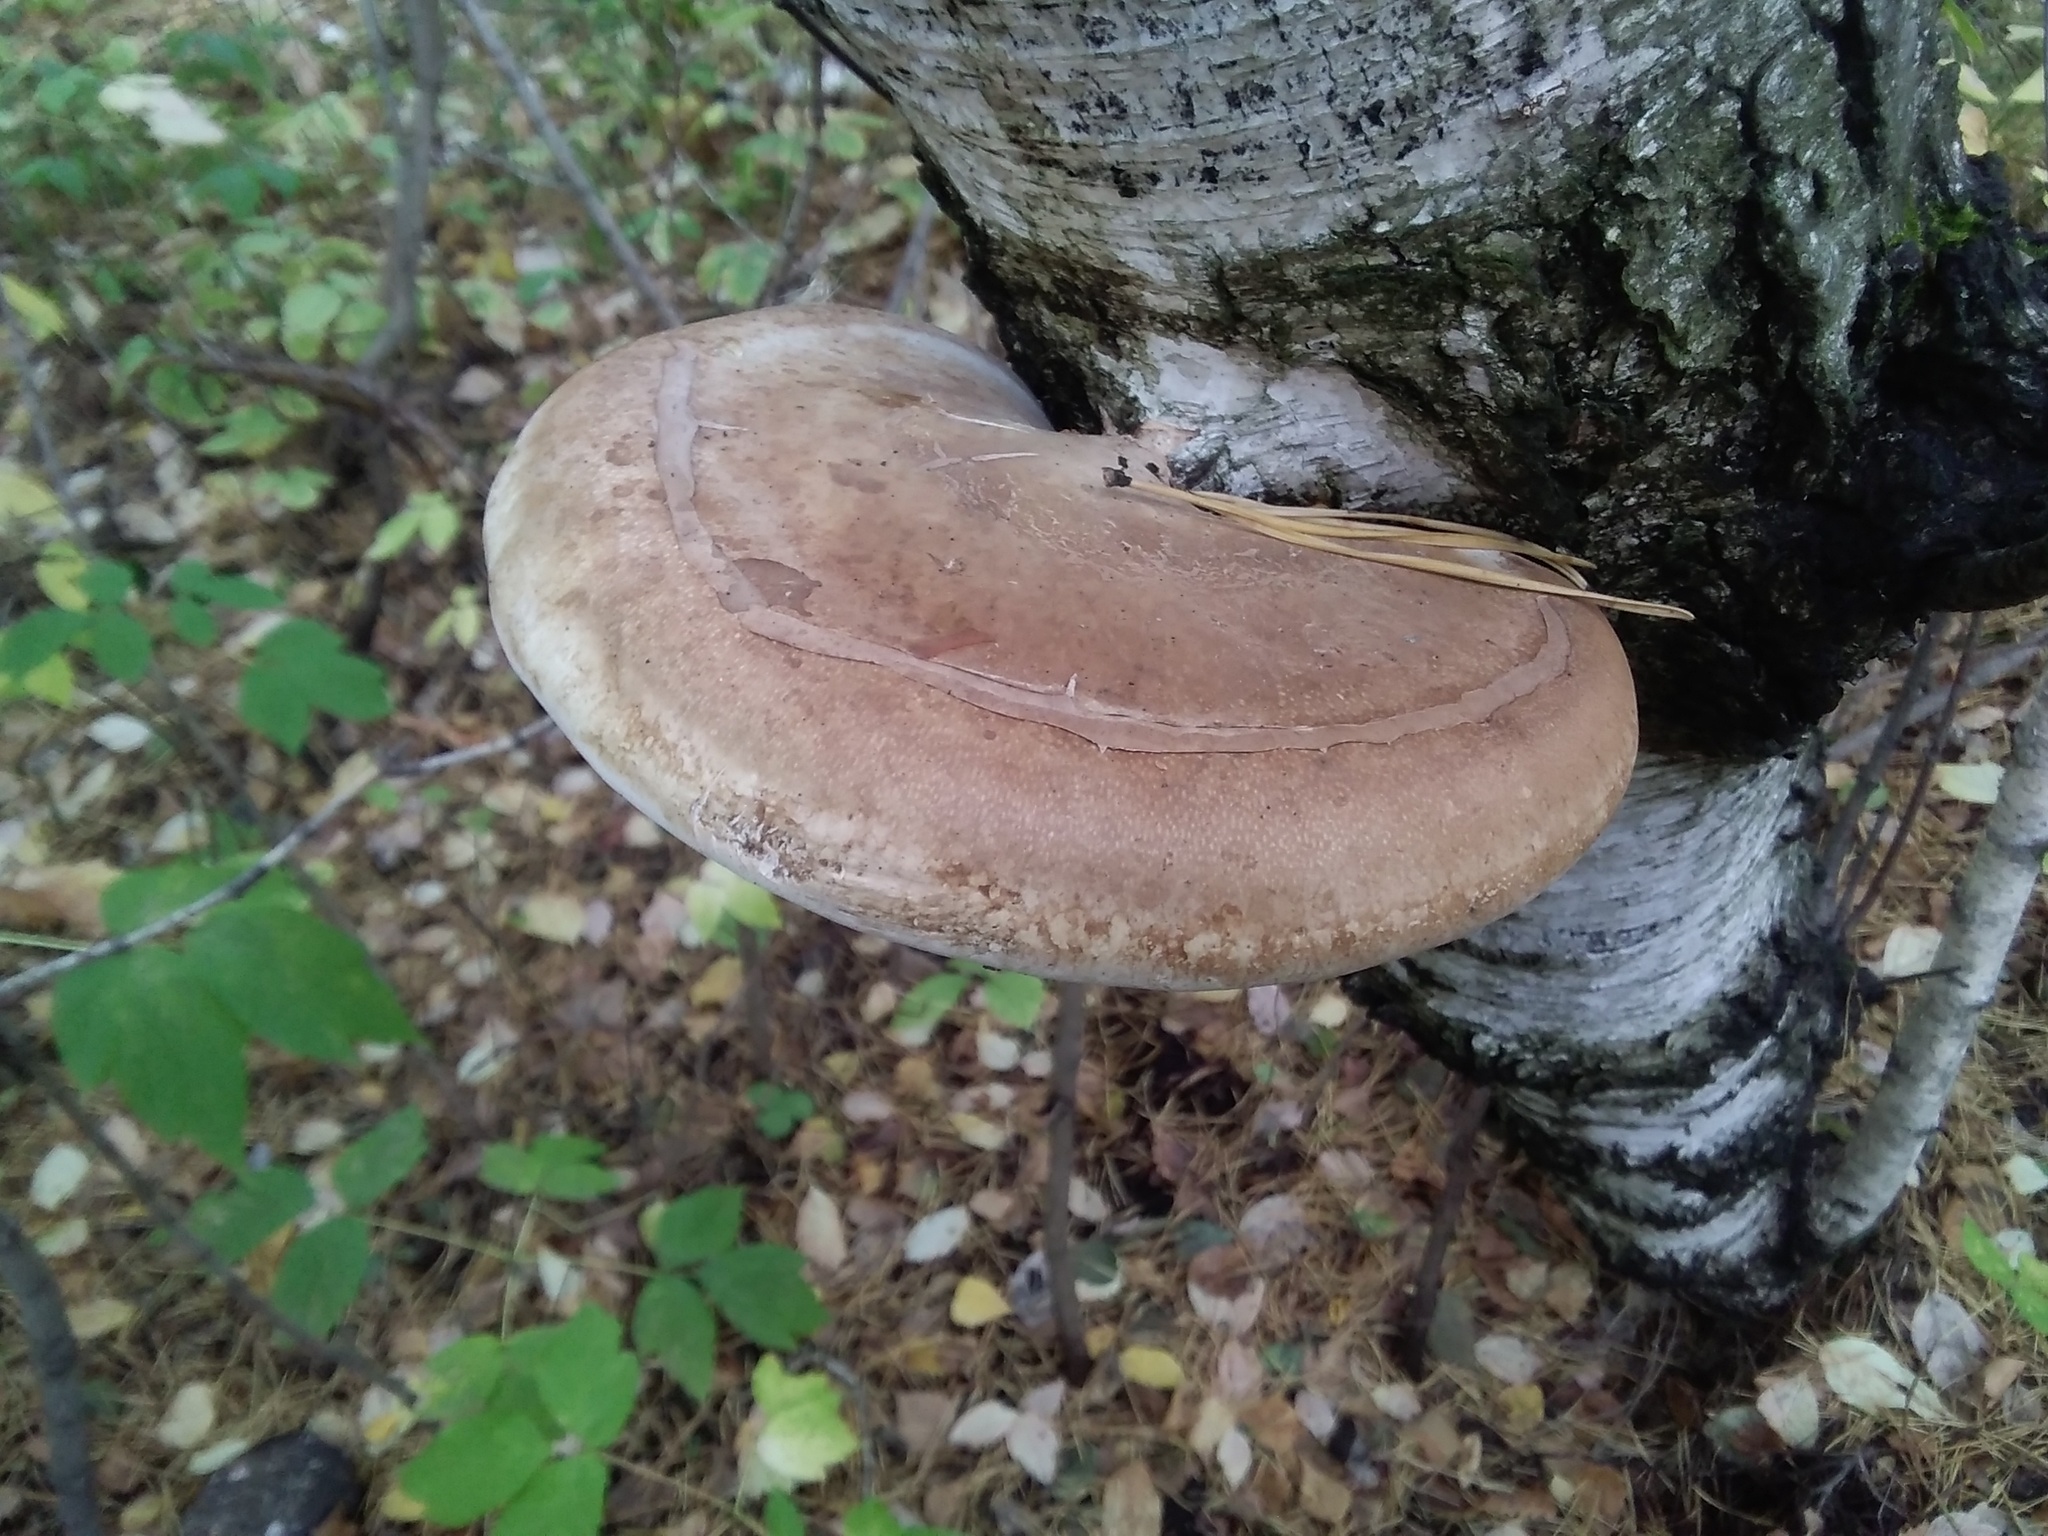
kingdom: Fungi
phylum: Basidiomycota
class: Agaricomycetes
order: Polyporales
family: Fomitopsidaceae
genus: Fomitopsis
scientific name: Fomitopsis betulina
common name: Birch polypore
